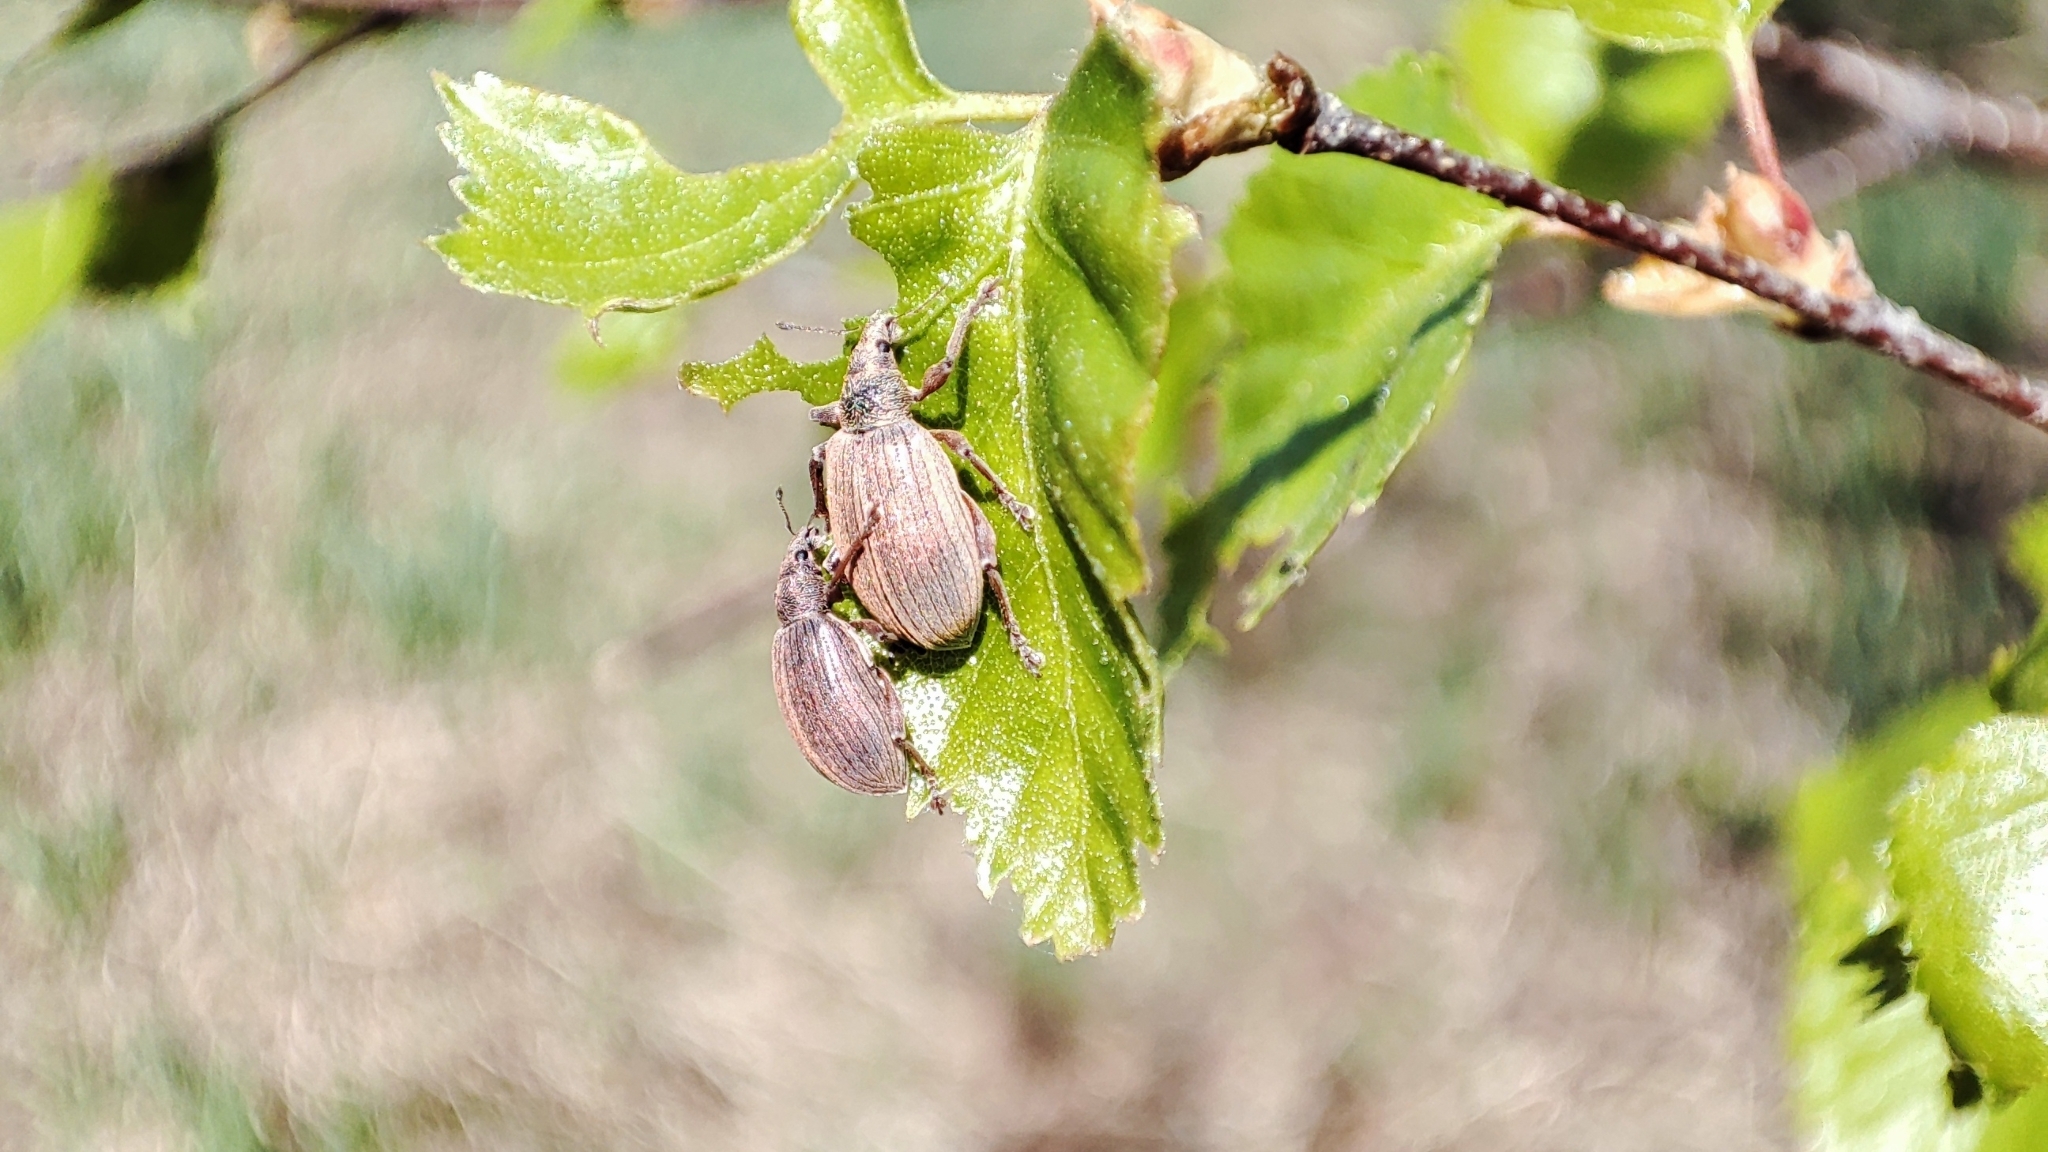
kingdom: Animalia
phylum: Arthropoda
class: Insecta
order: Coleoptera
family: Curculionidae
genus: Polydrusus
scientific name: Polydrusus mollis
